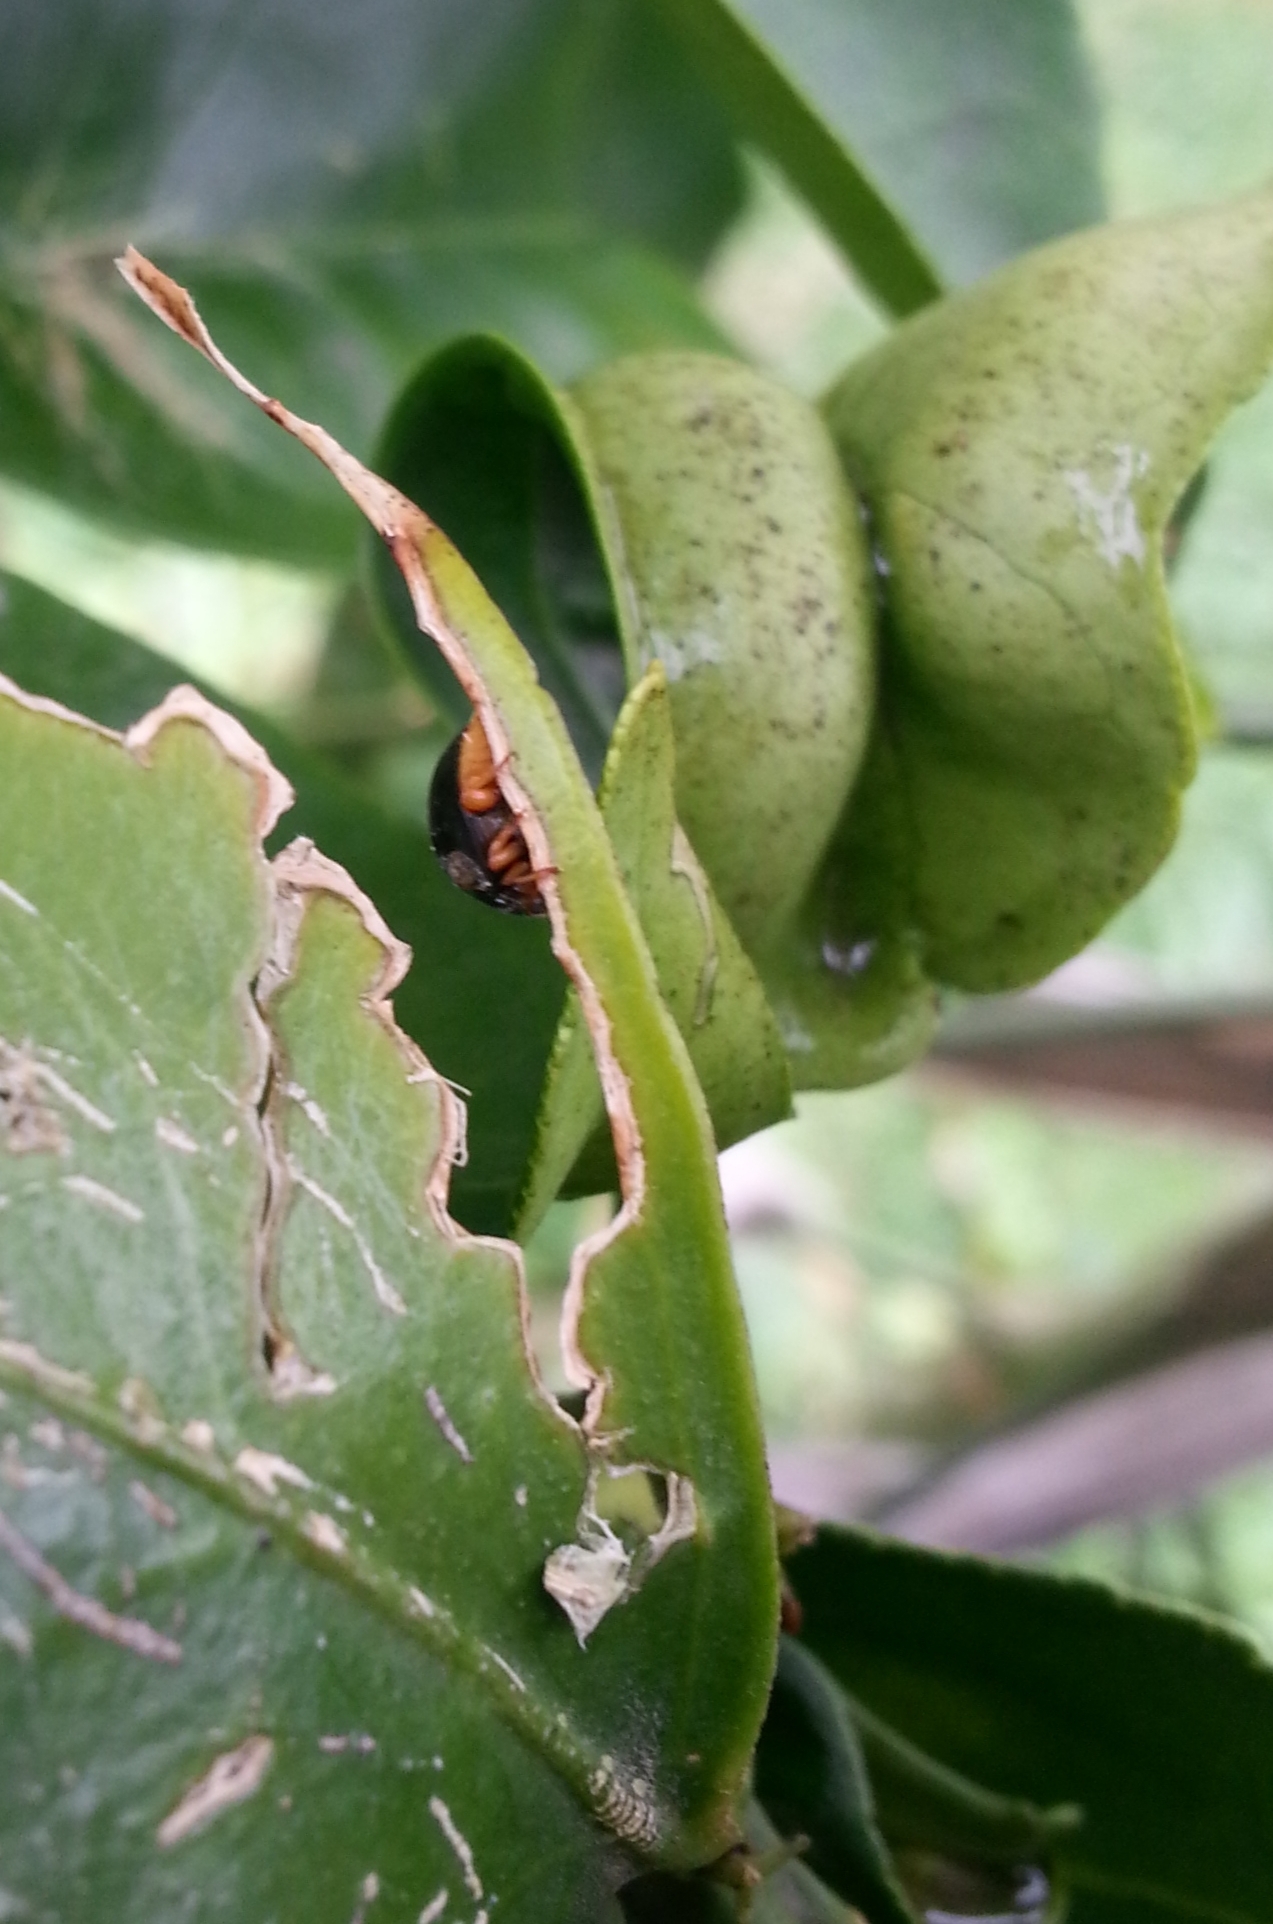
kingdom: Animalia
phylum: Arthropoda
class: Insecta
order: Coleoptera
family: Coccinellidae
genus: Azya
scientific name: Azya luteipes
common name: Ladybird beetle
